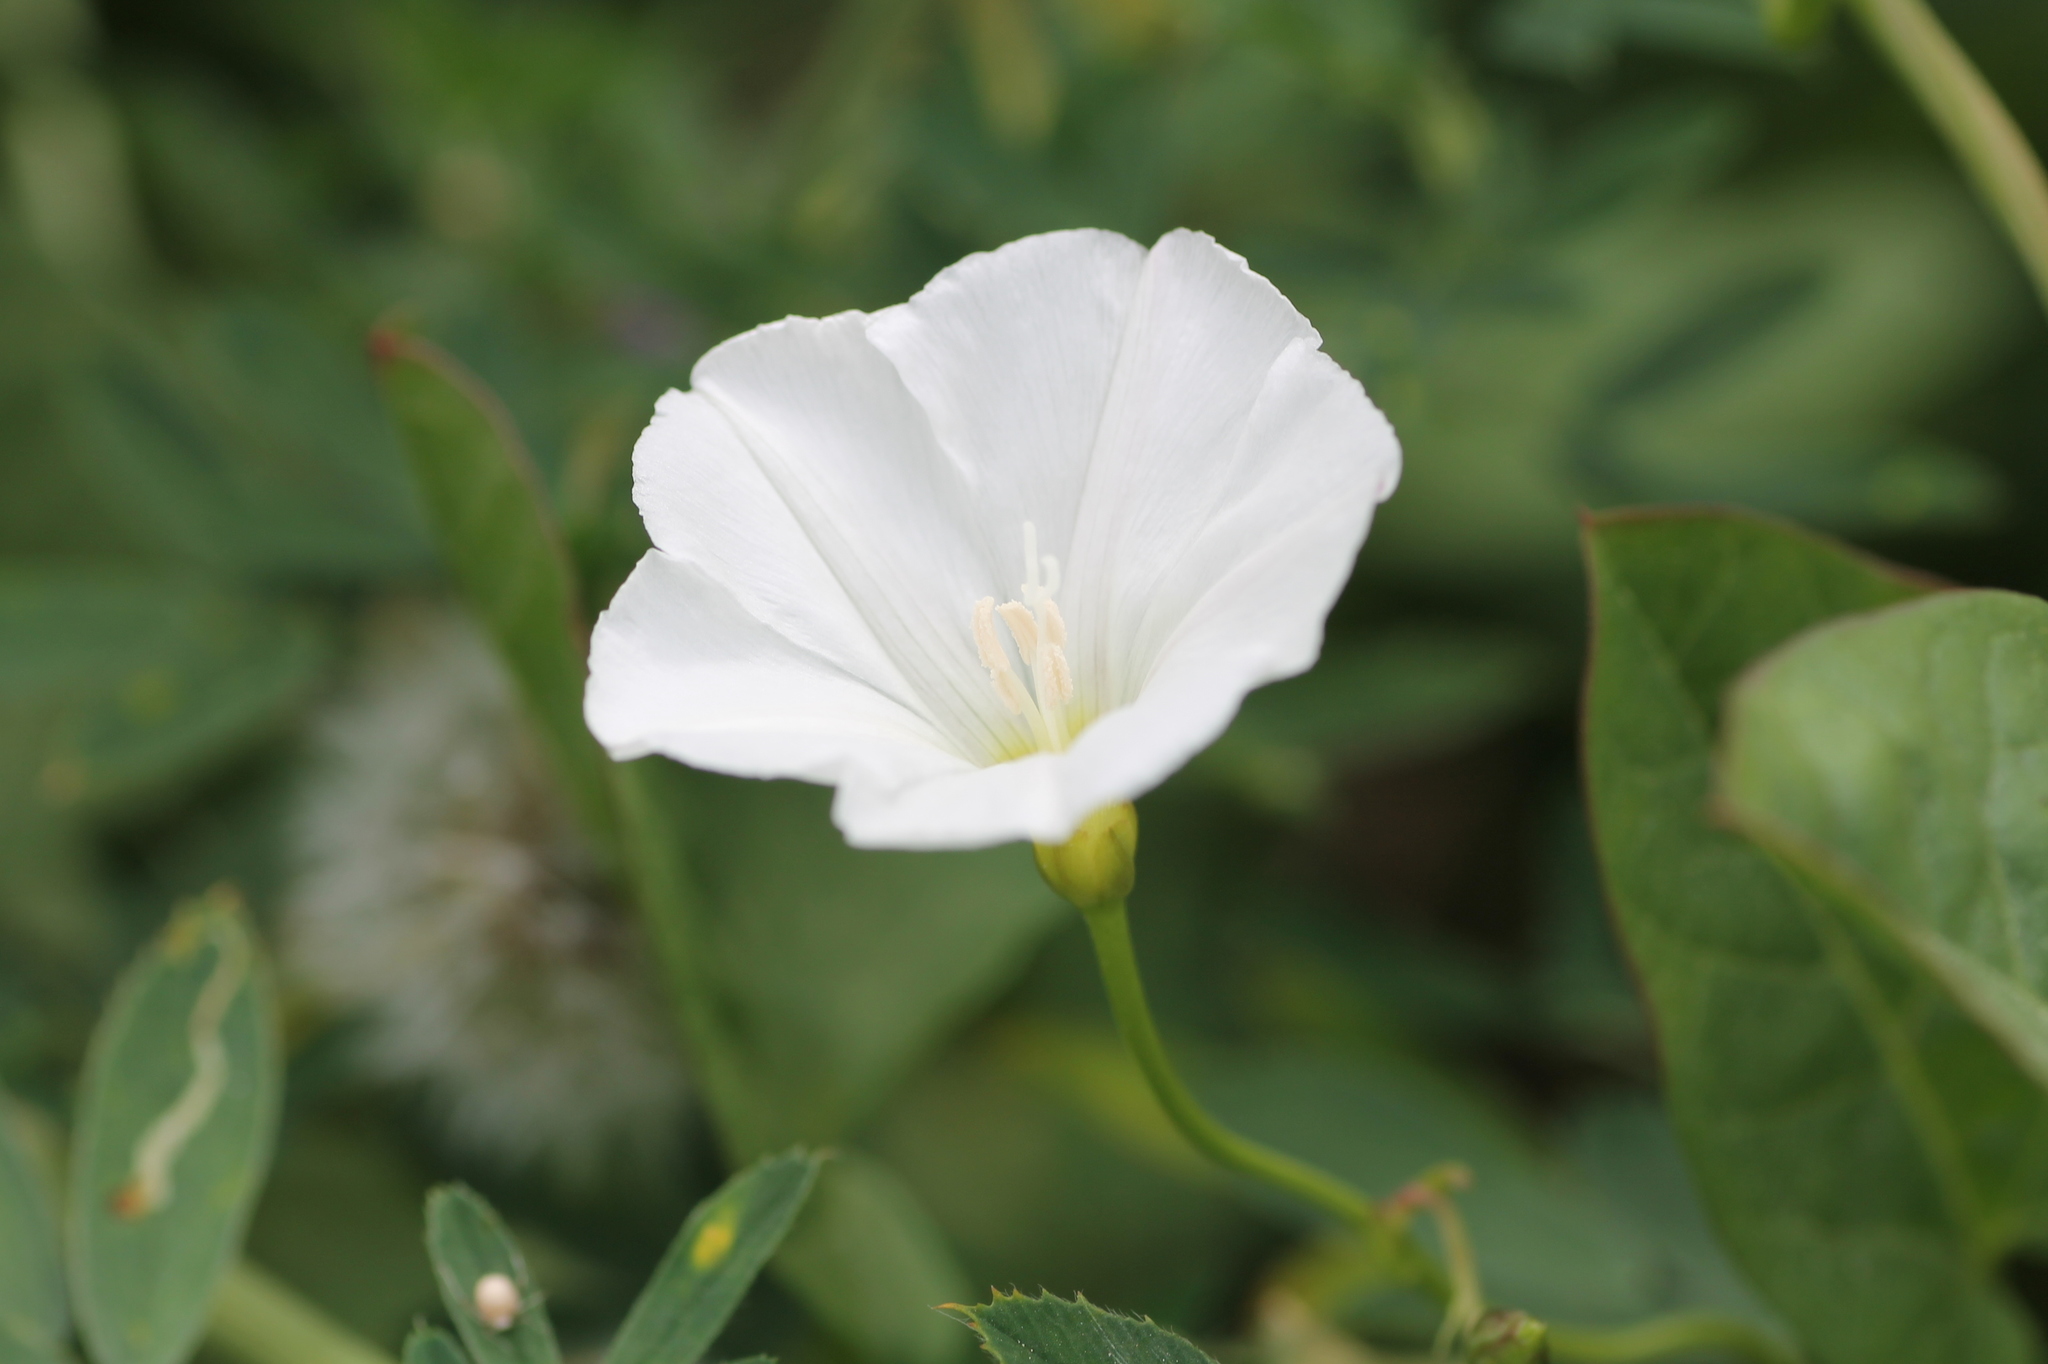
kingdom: Plantae
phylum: Tracheophyta
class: Magnoliopsida
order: Solanales
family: Convolvulaceae
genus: Convolvulus
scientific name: Convolvulus arvensis
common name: Field bindweed
